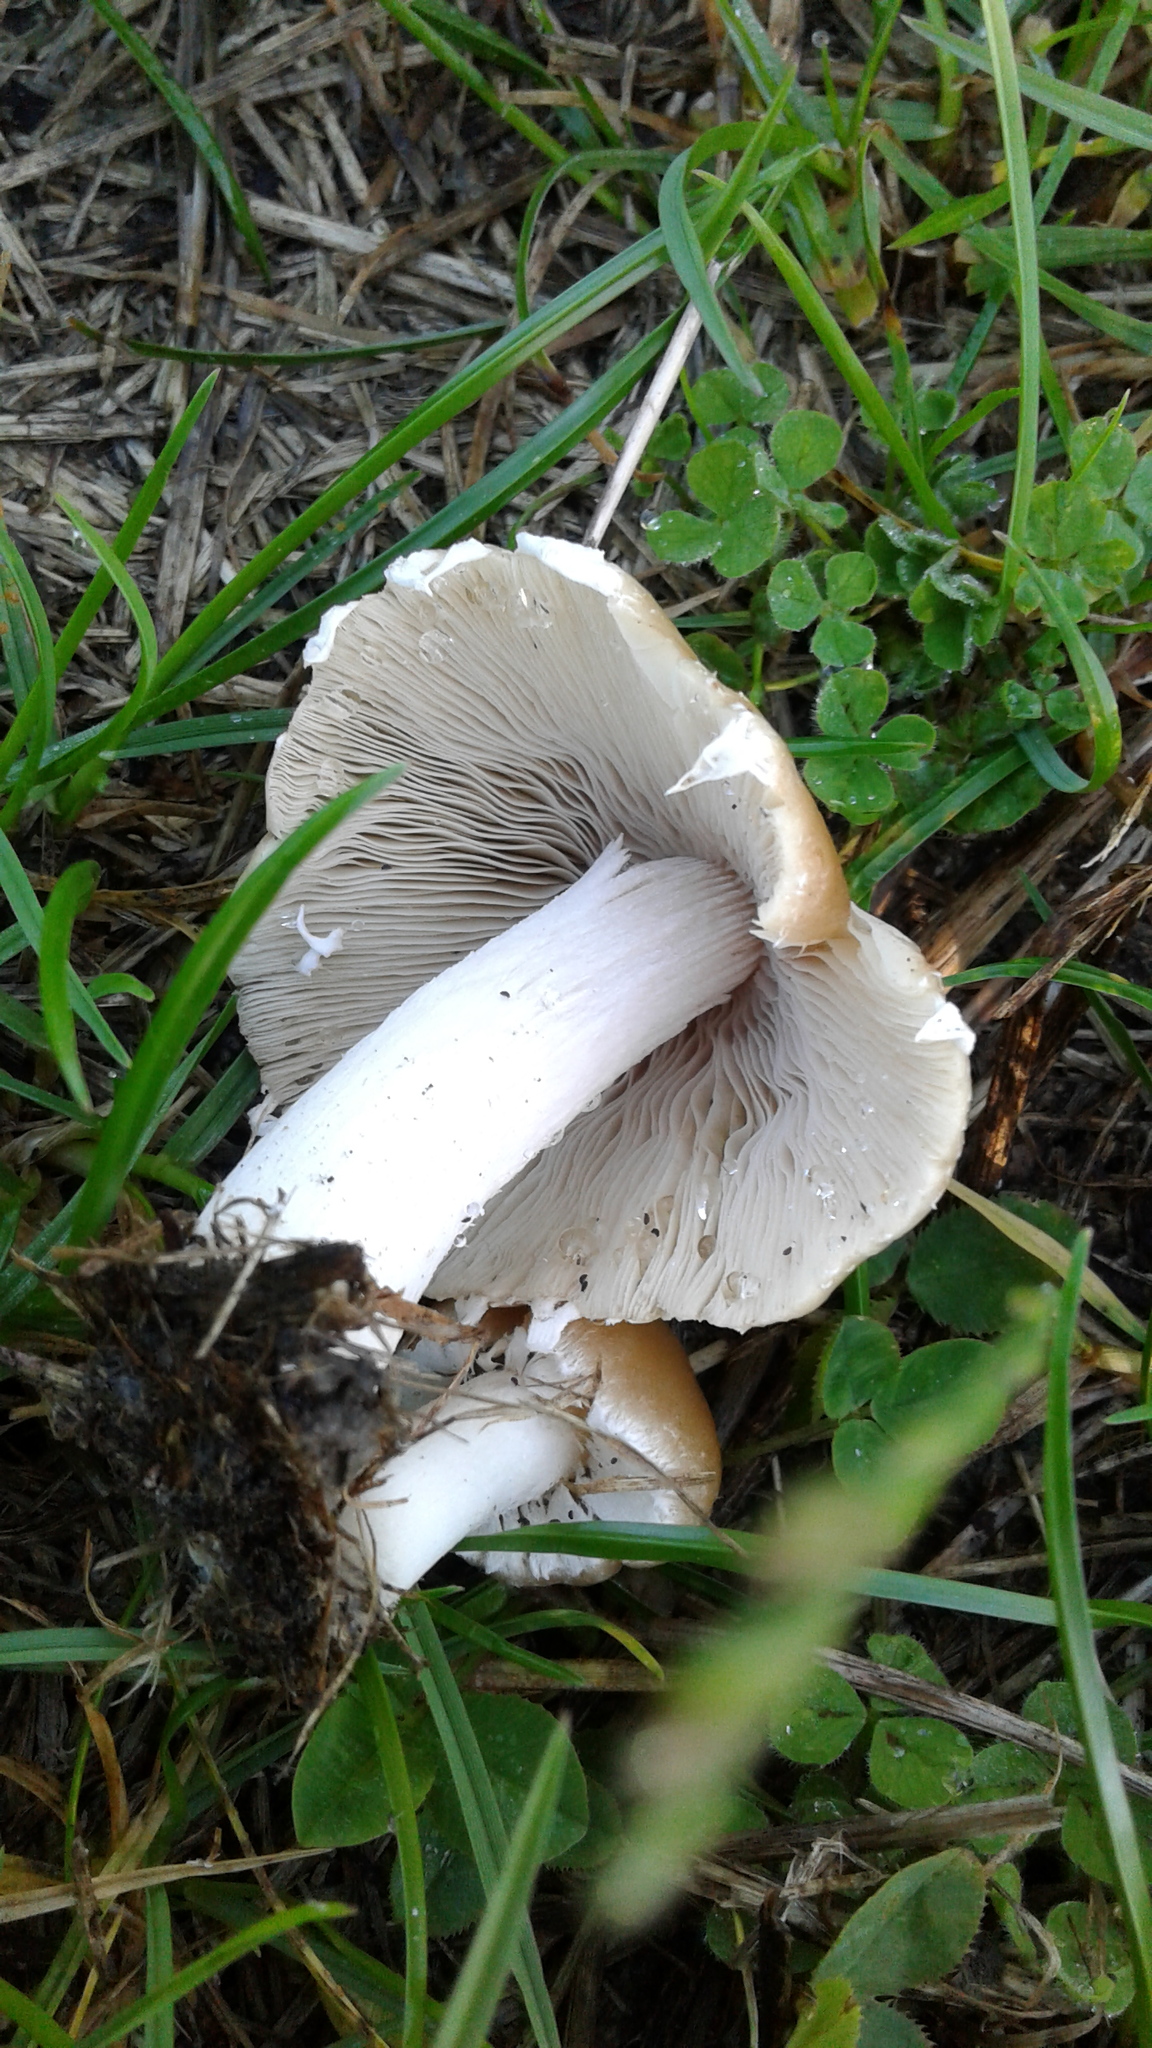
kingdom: Fungi
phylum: Basidiomycota
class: Agaricomycetes
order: Agaricales
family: Psathyrellaceae
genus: Candolleomyces
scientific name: Candolleomyces candolleanus
